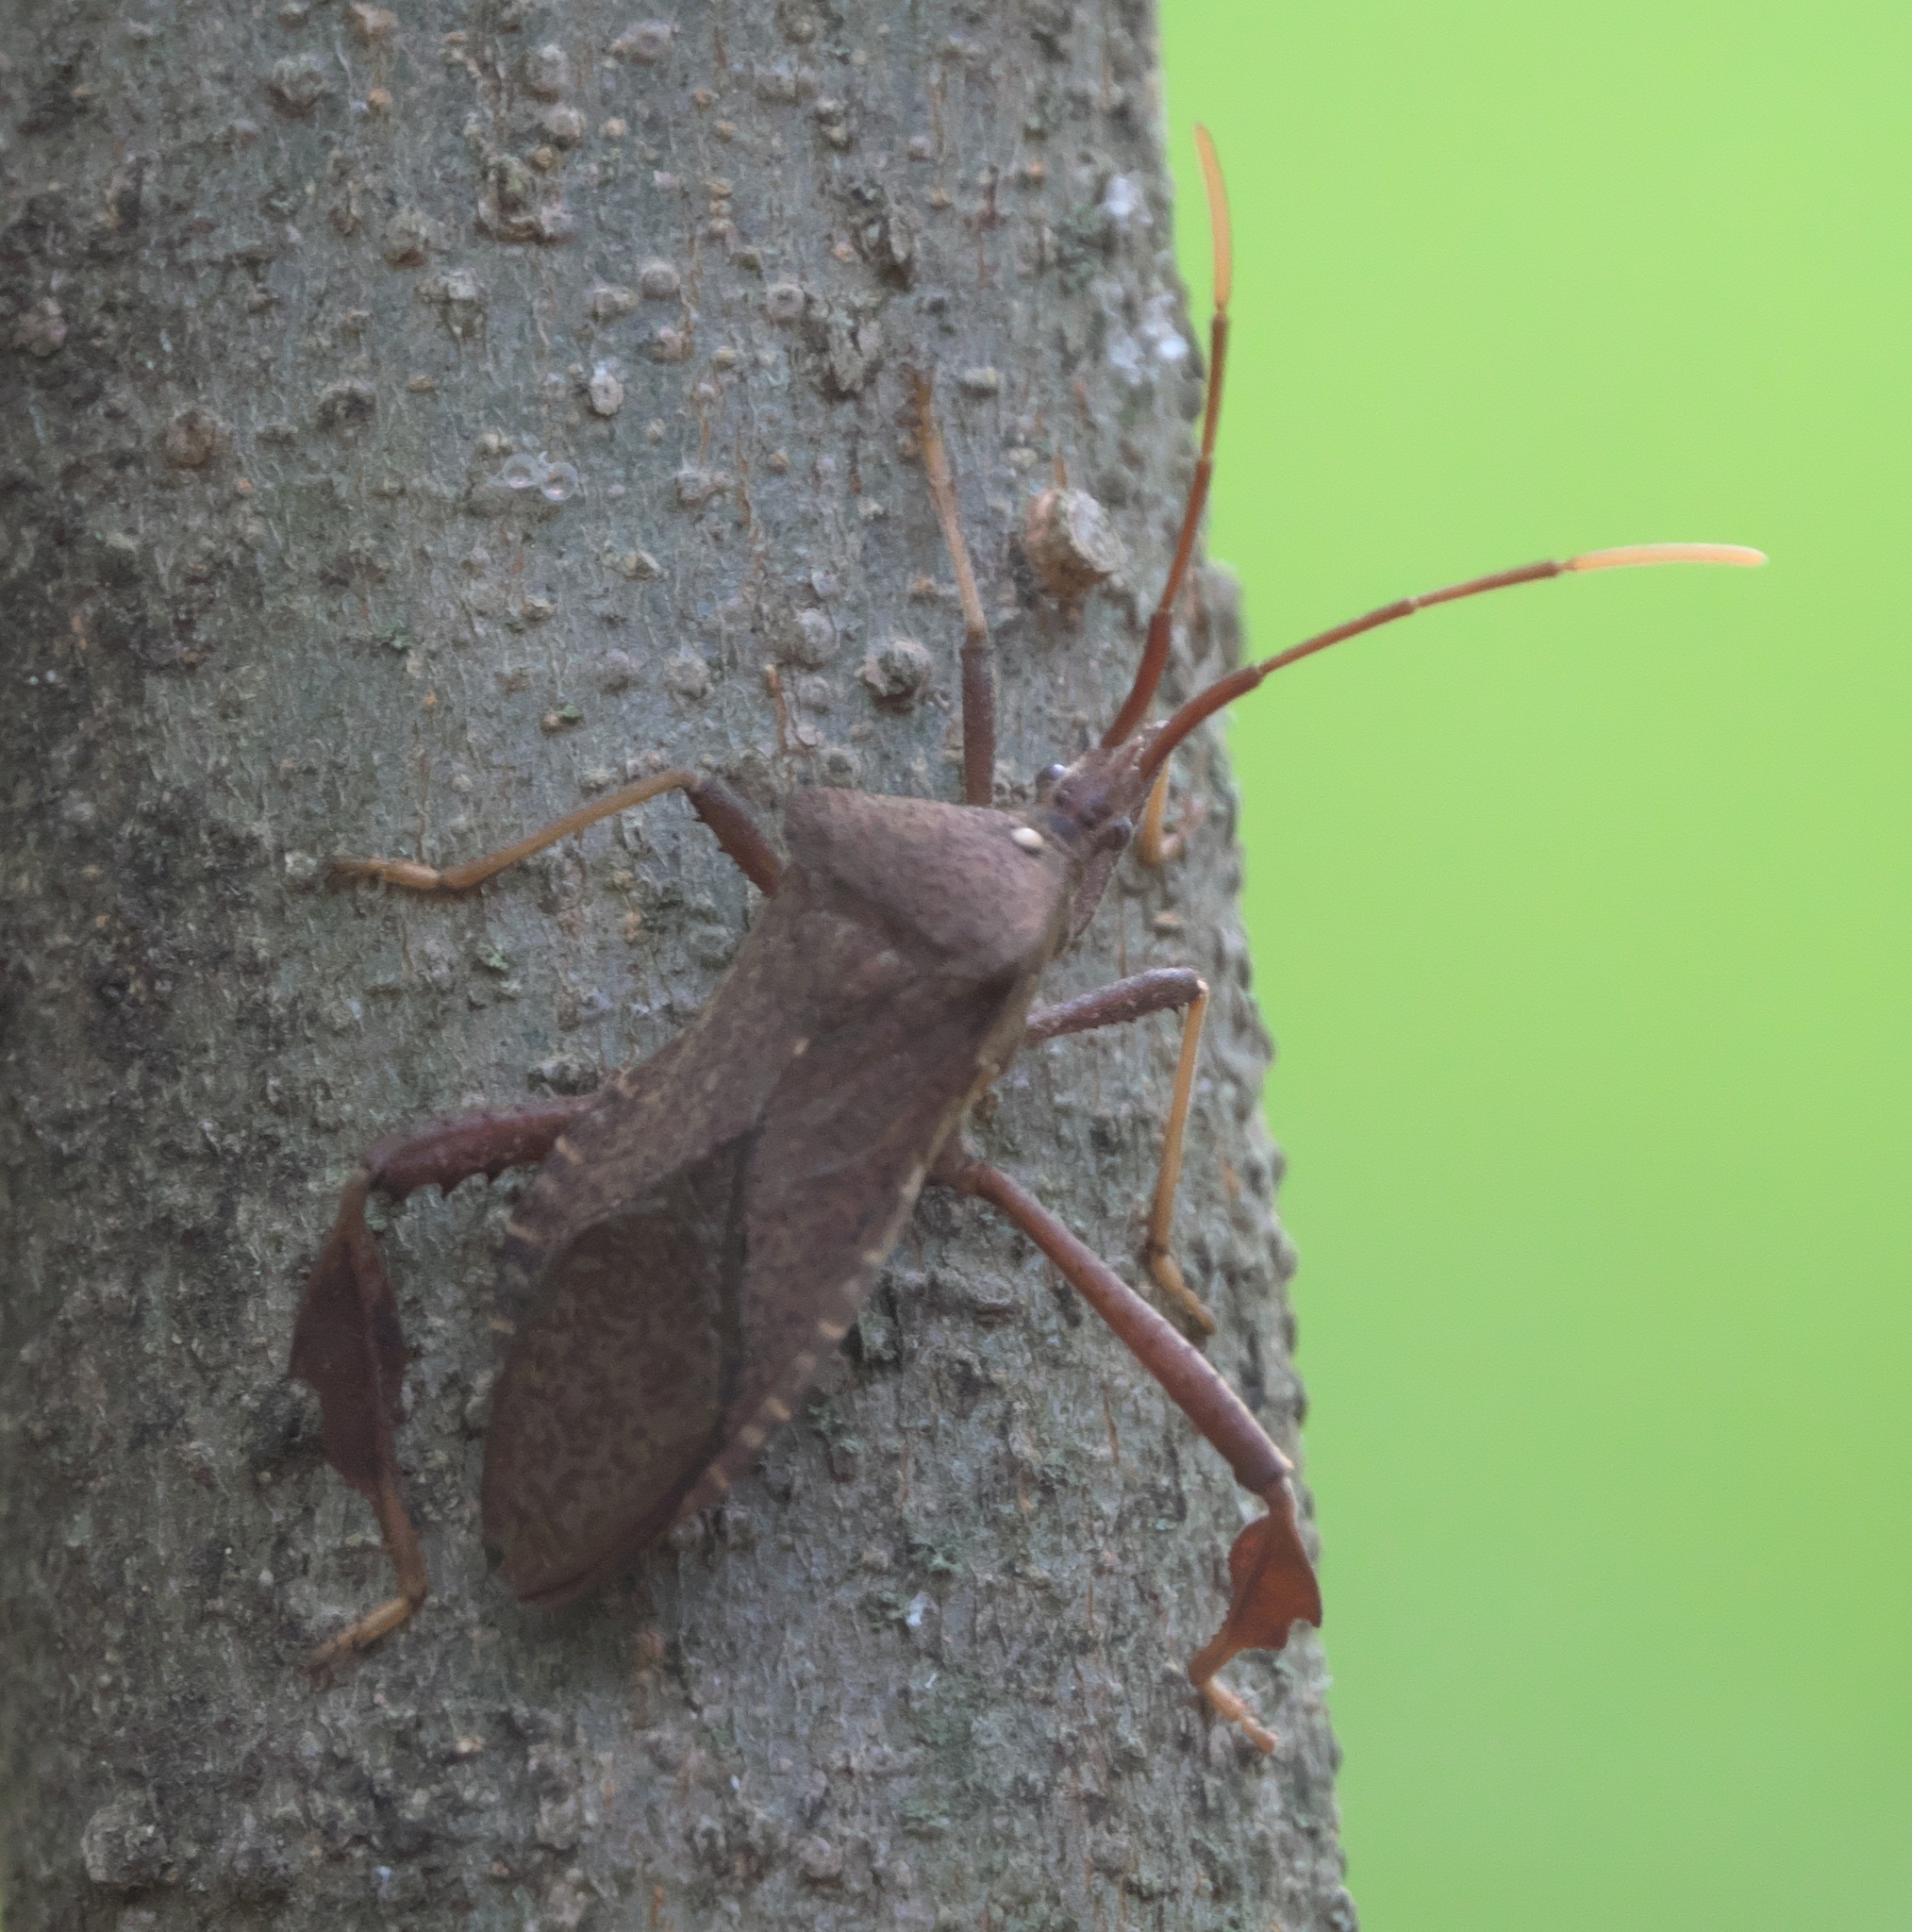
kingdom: Animalia
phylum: Arthropoda
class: Insecta
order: Hemiptera
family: Coreidae
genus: Acanthocephala
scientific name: Acanthocephala terminalis
